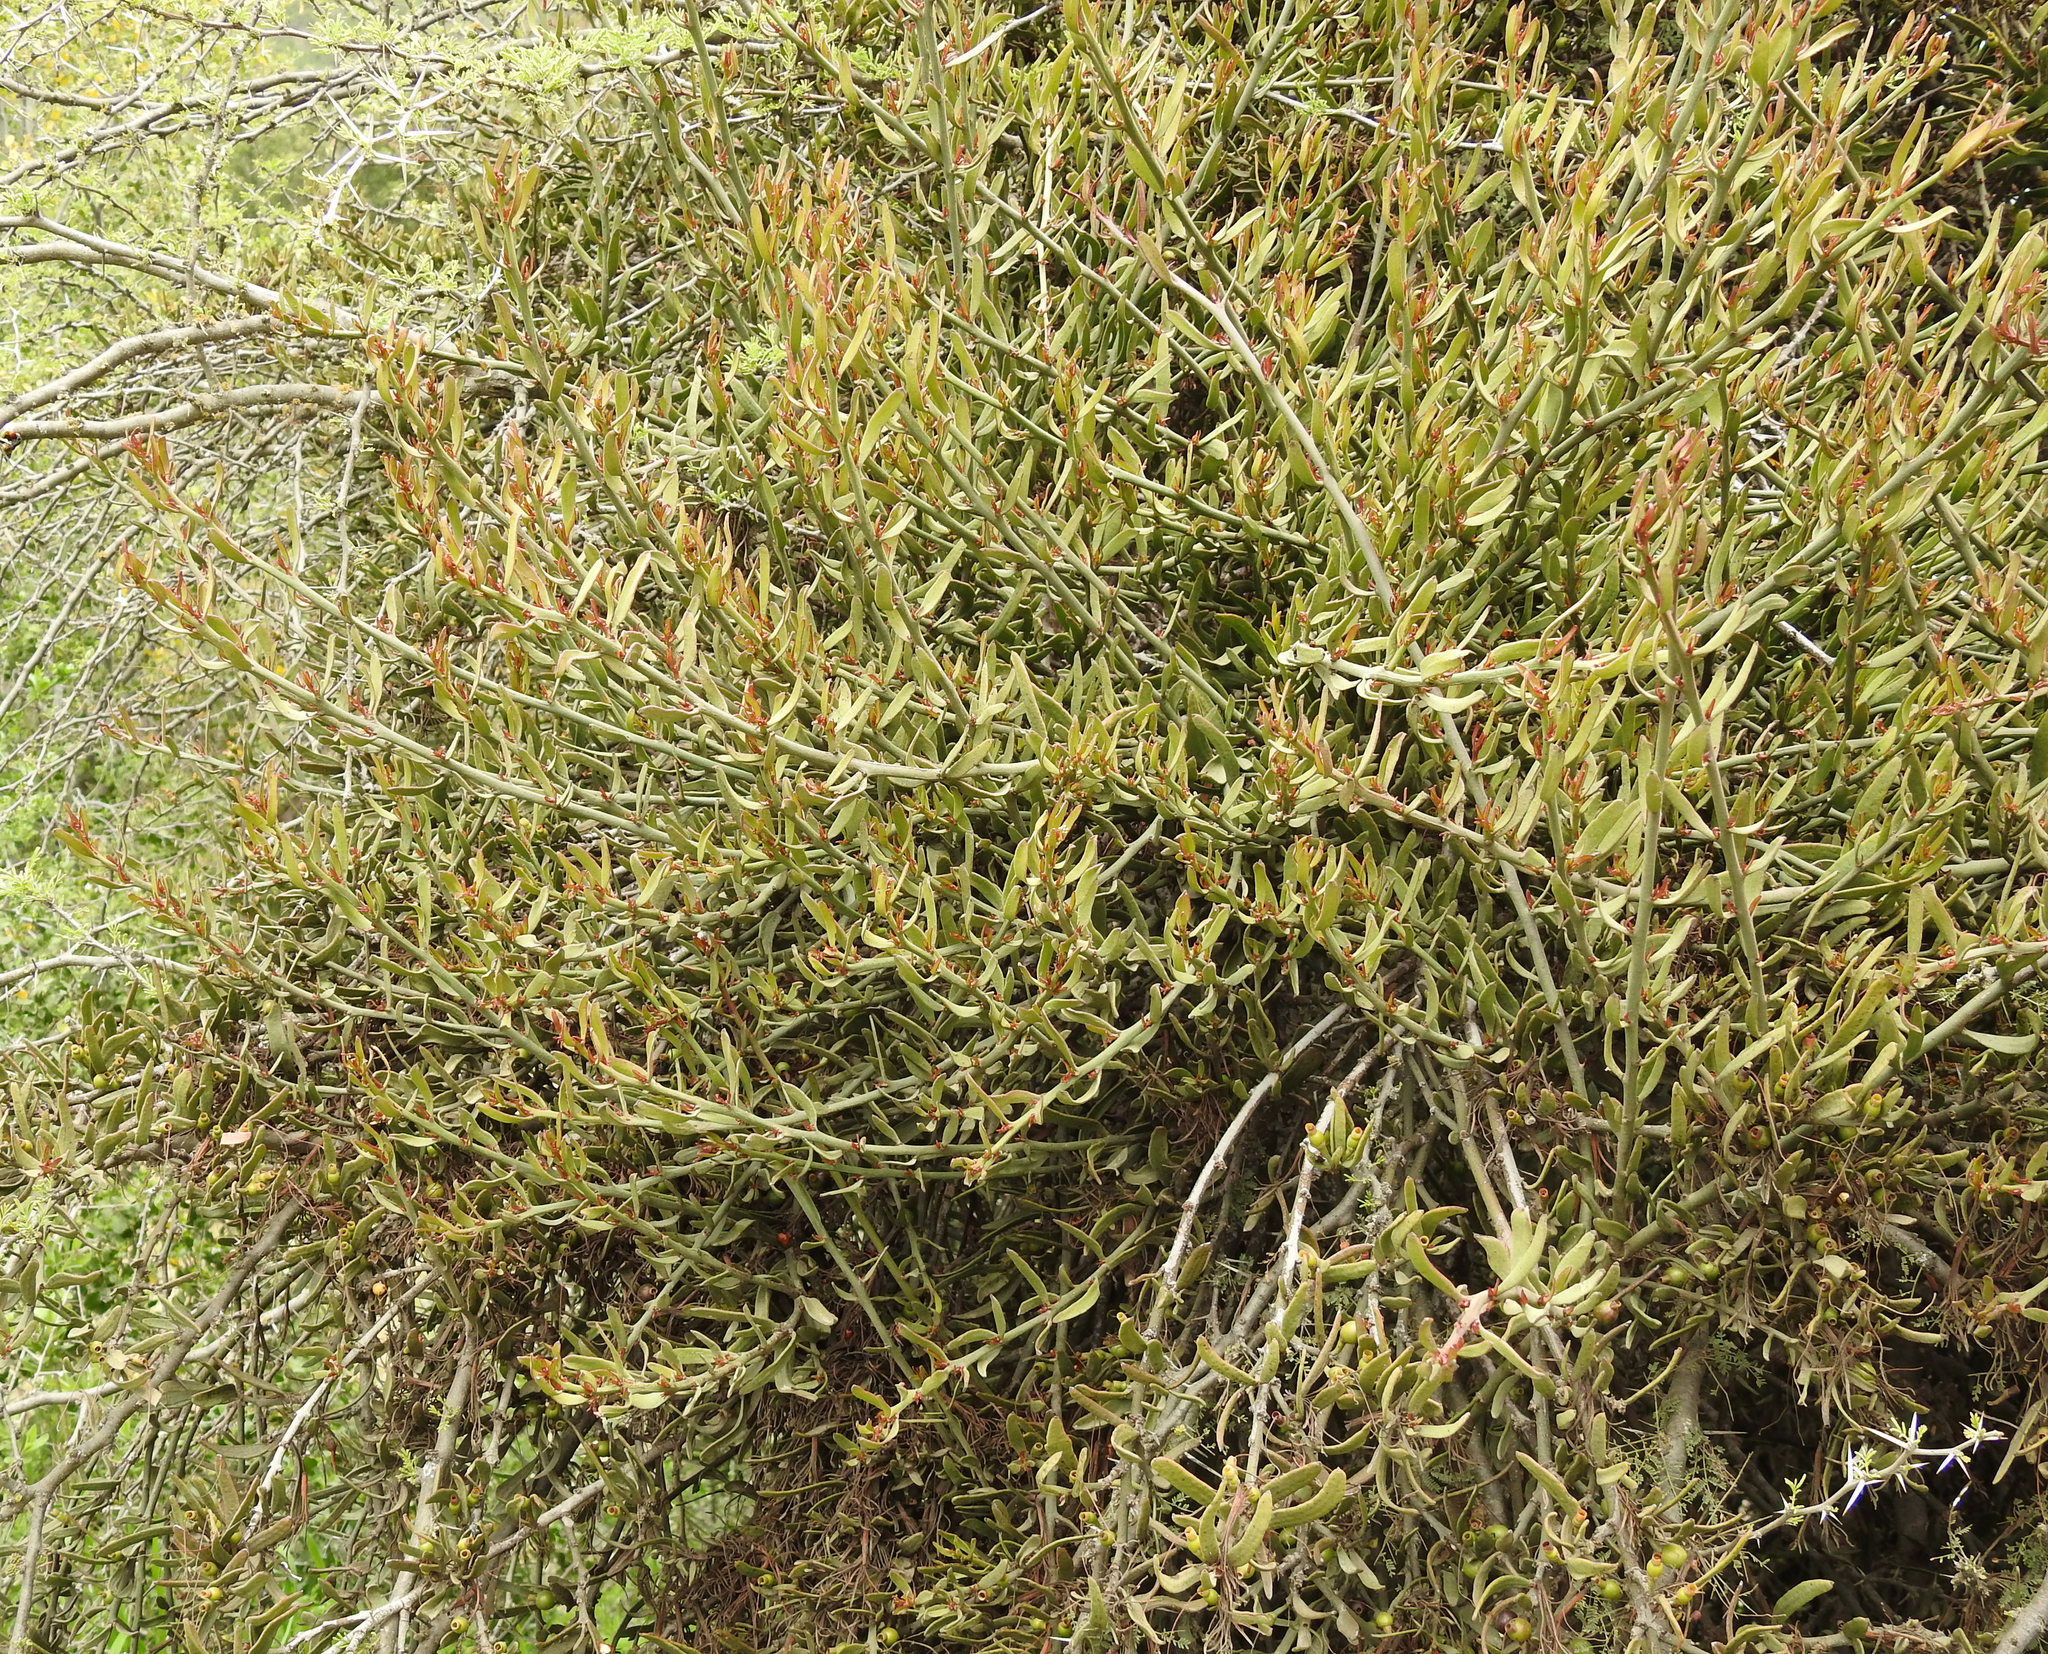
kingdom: Plantae
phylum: Tracheophyta
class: Magnoliopsida
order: Santalales
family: Loranthaceae
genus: Ligaria
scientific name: Ligaria cuneifolia
